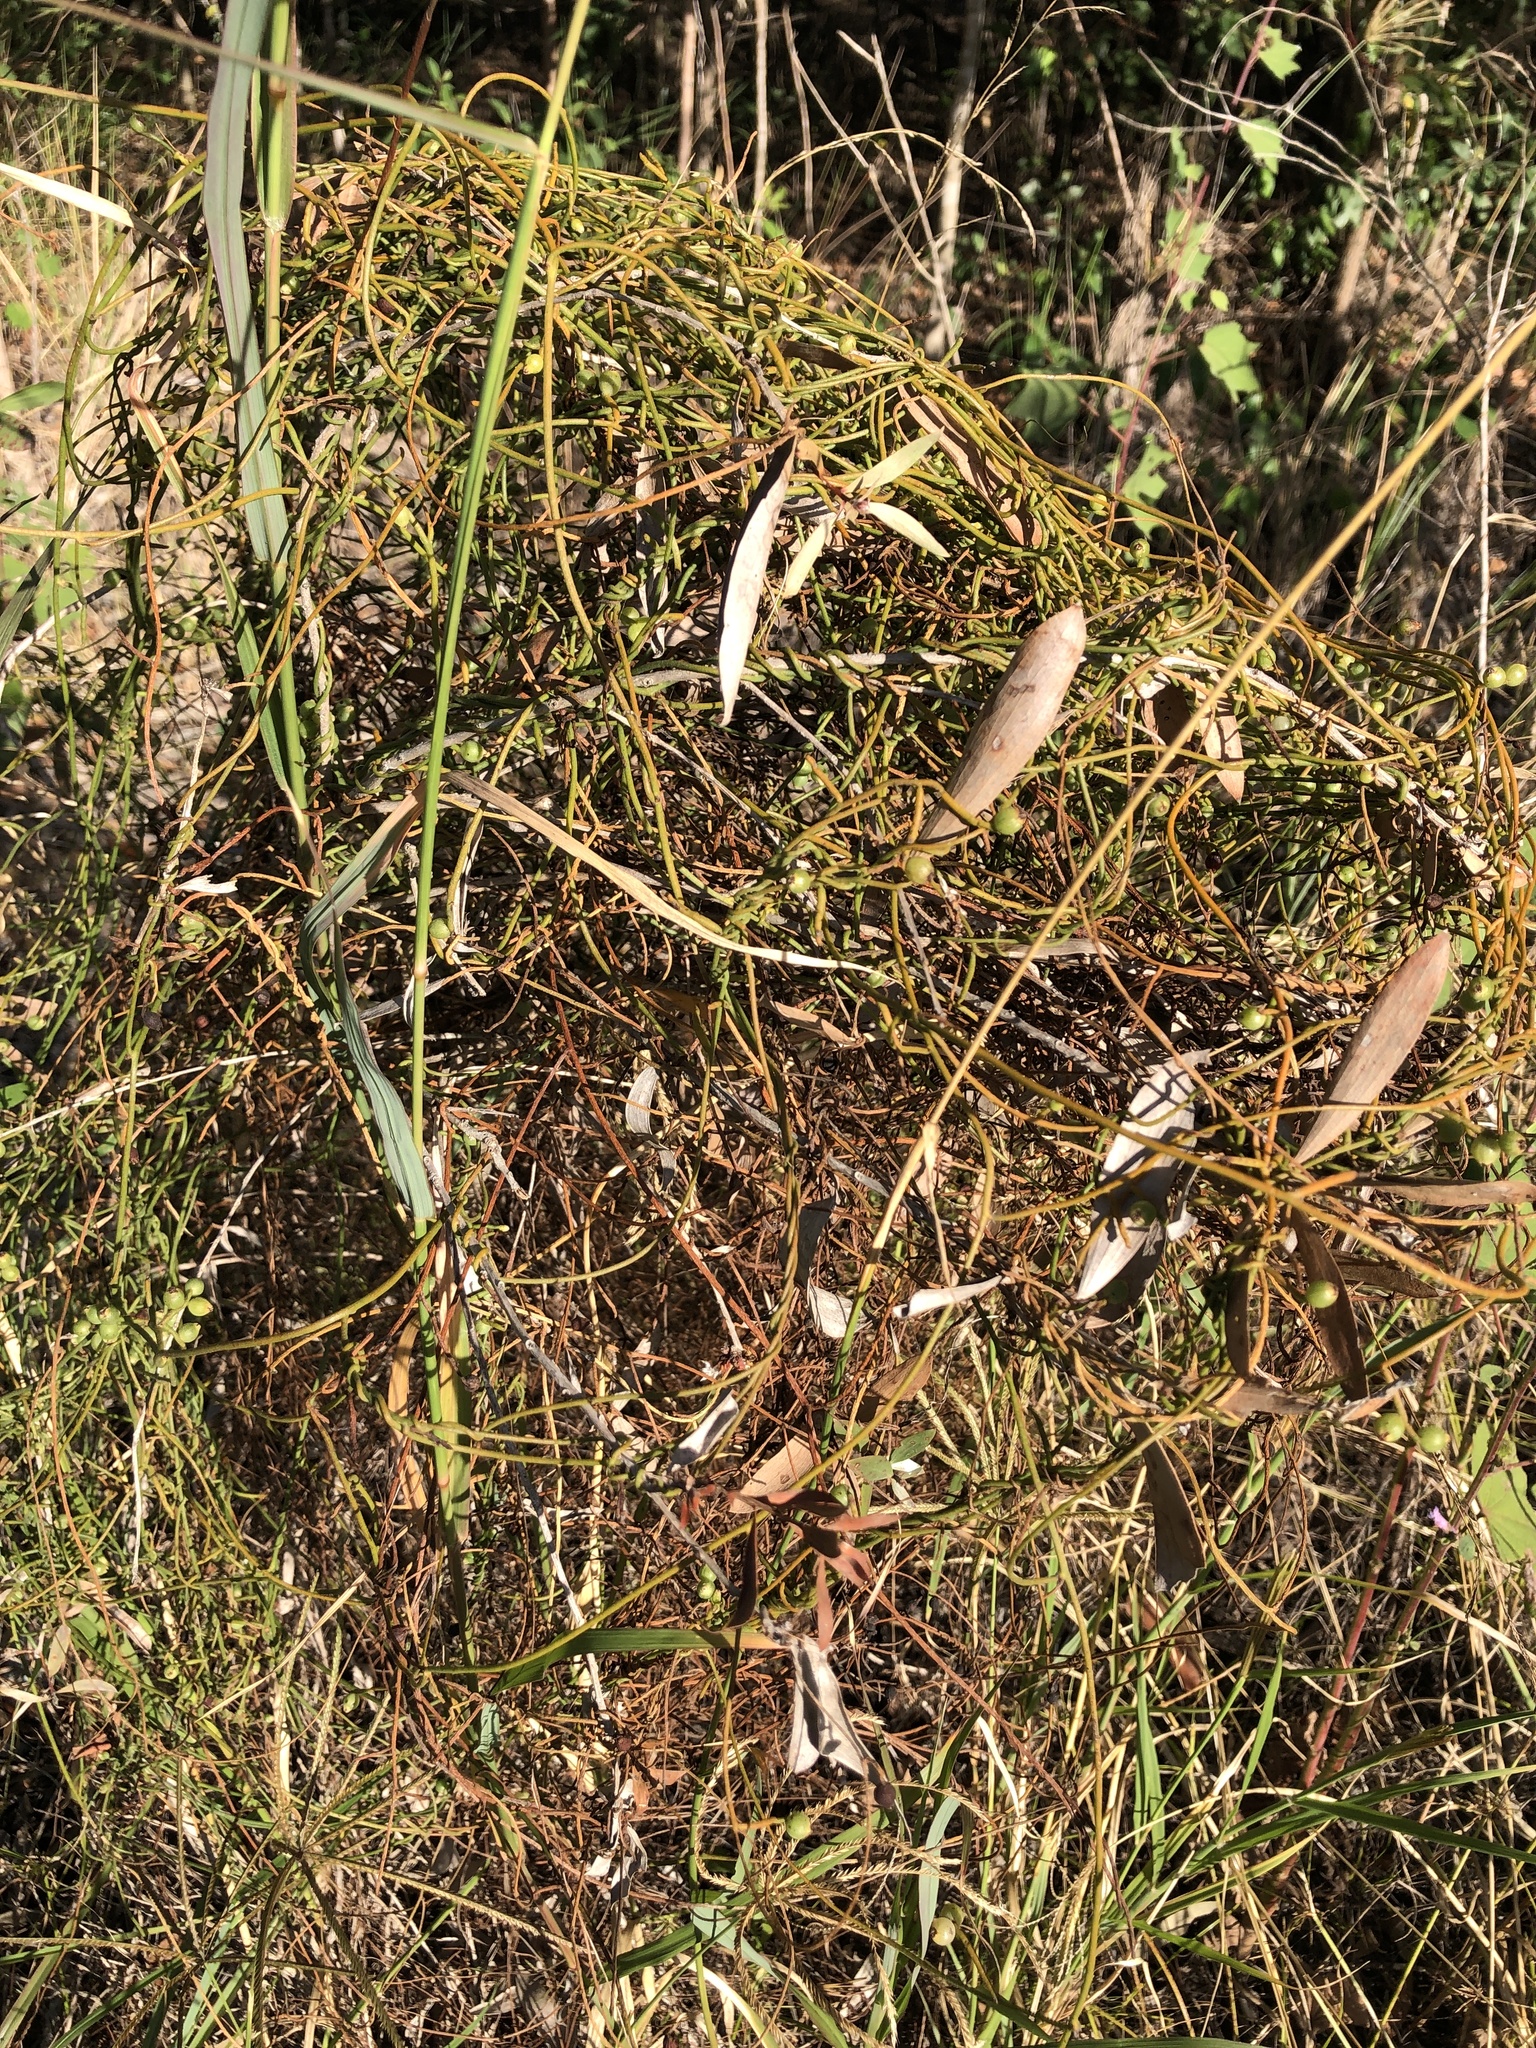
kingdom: Plantae
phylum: Tracheophyta
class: Magnoliopsida
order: Laurales
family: Lauraceae
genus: Cassytha
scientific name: Cassytha filiformis
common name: Dodder-laurel
